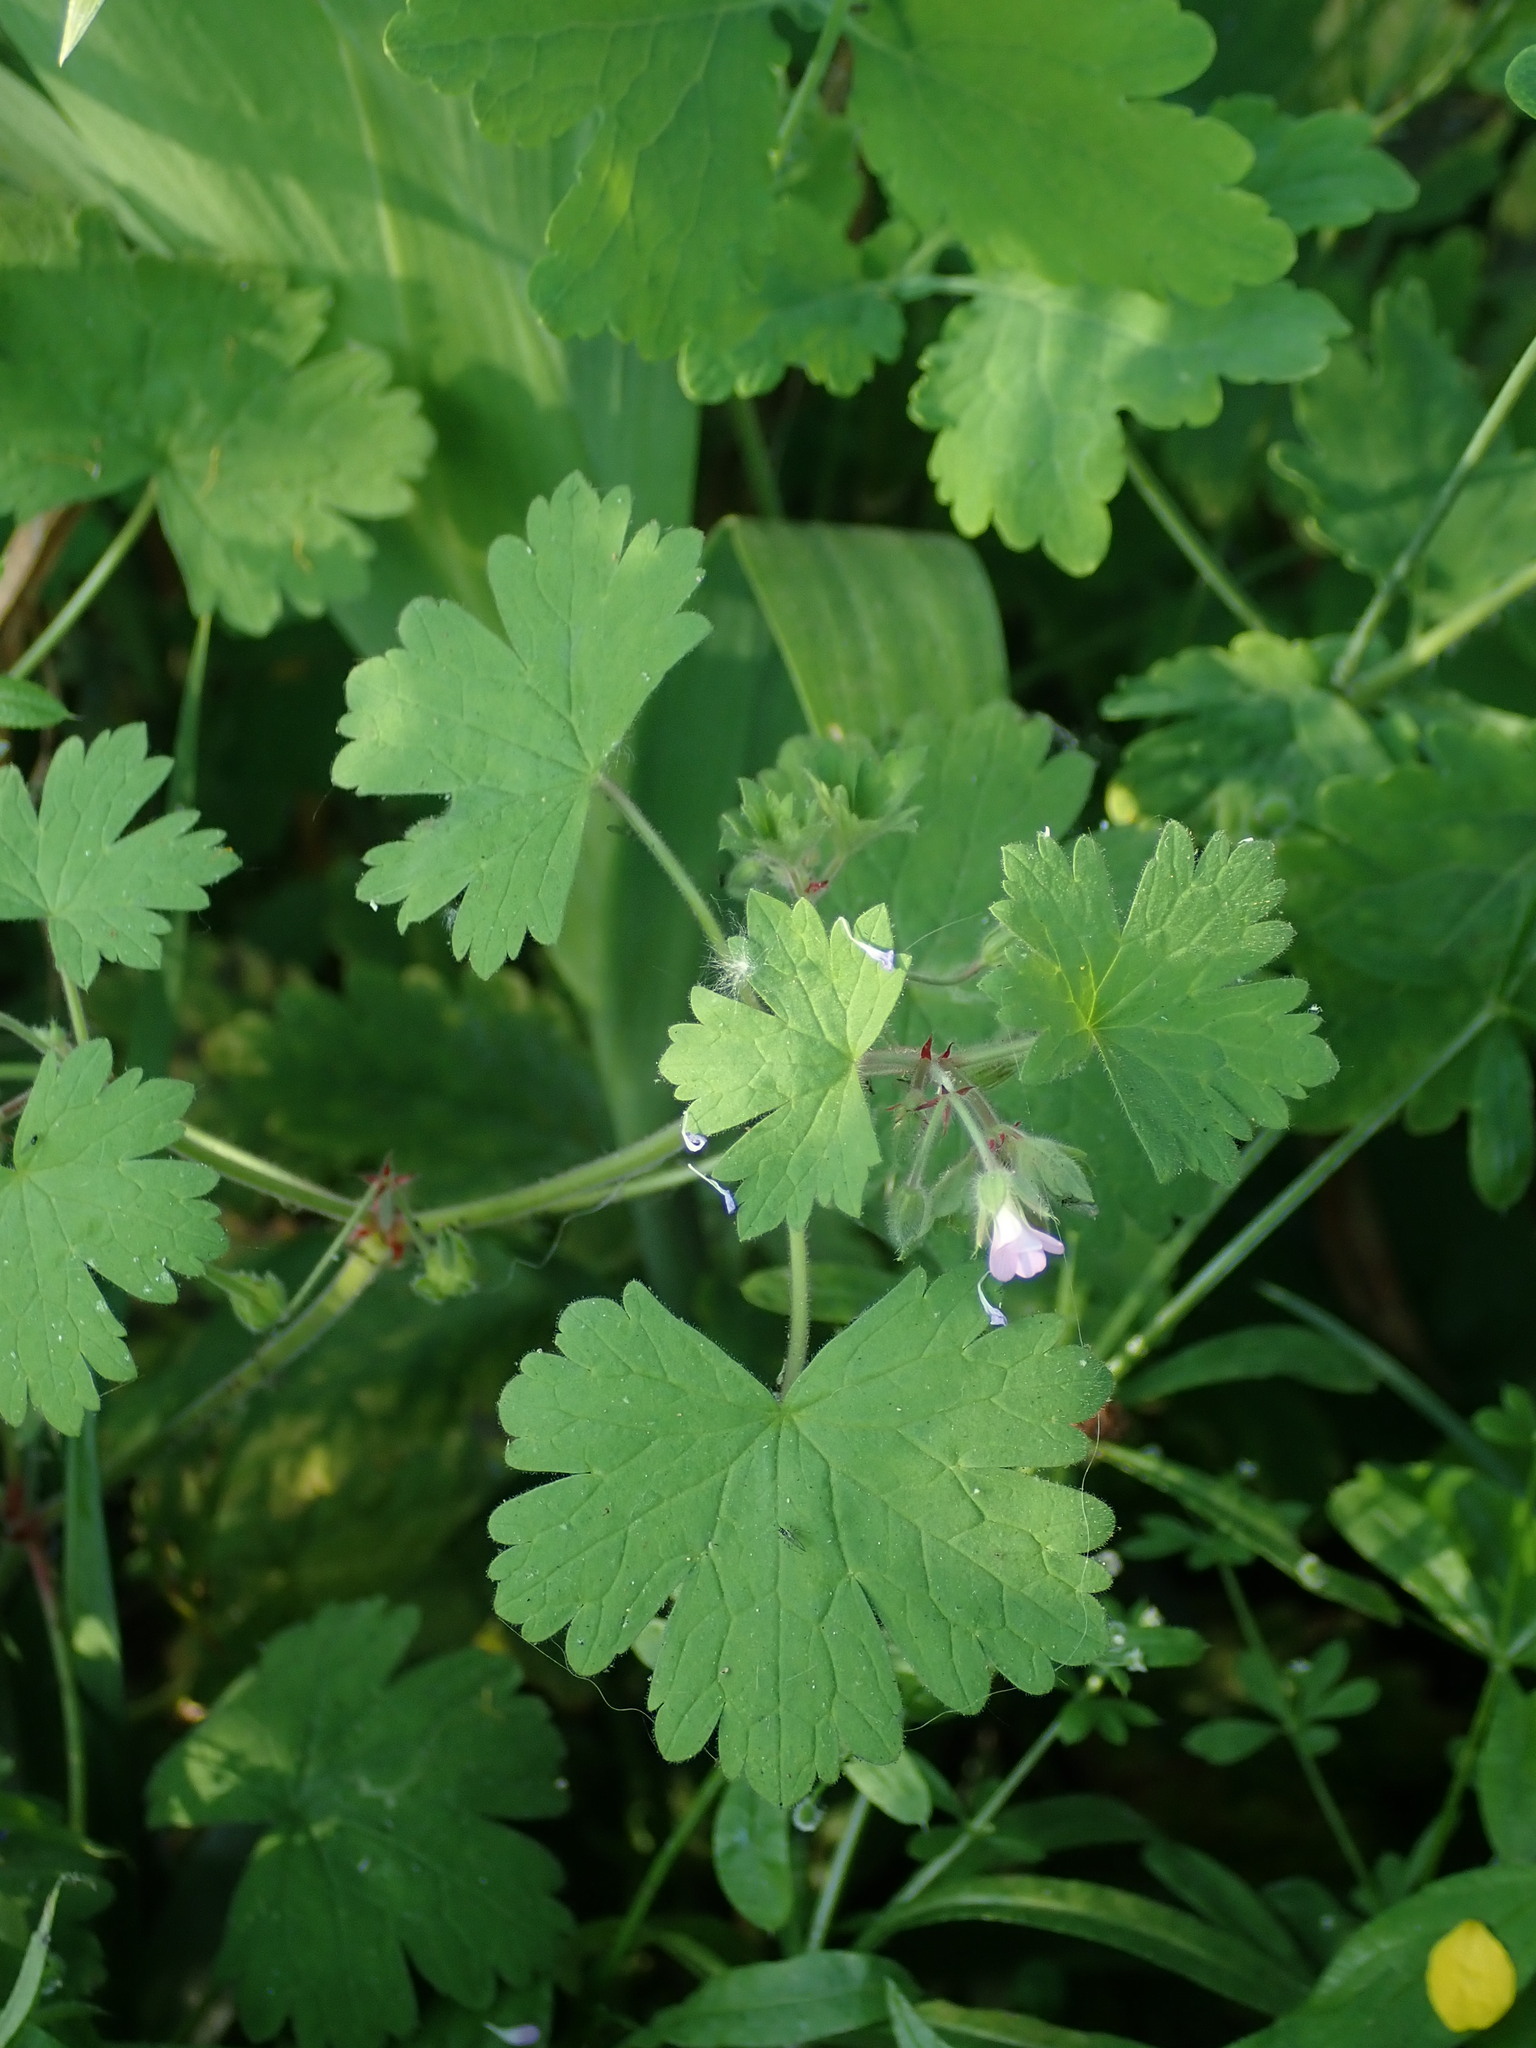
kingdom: Plantae
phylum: Tracheophyta
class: Magnoliopsida
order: Geraniales
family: Geraniaceae
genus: Geranium
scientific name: Geranium rotundifolium
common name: Round-leaved crane's-bill
